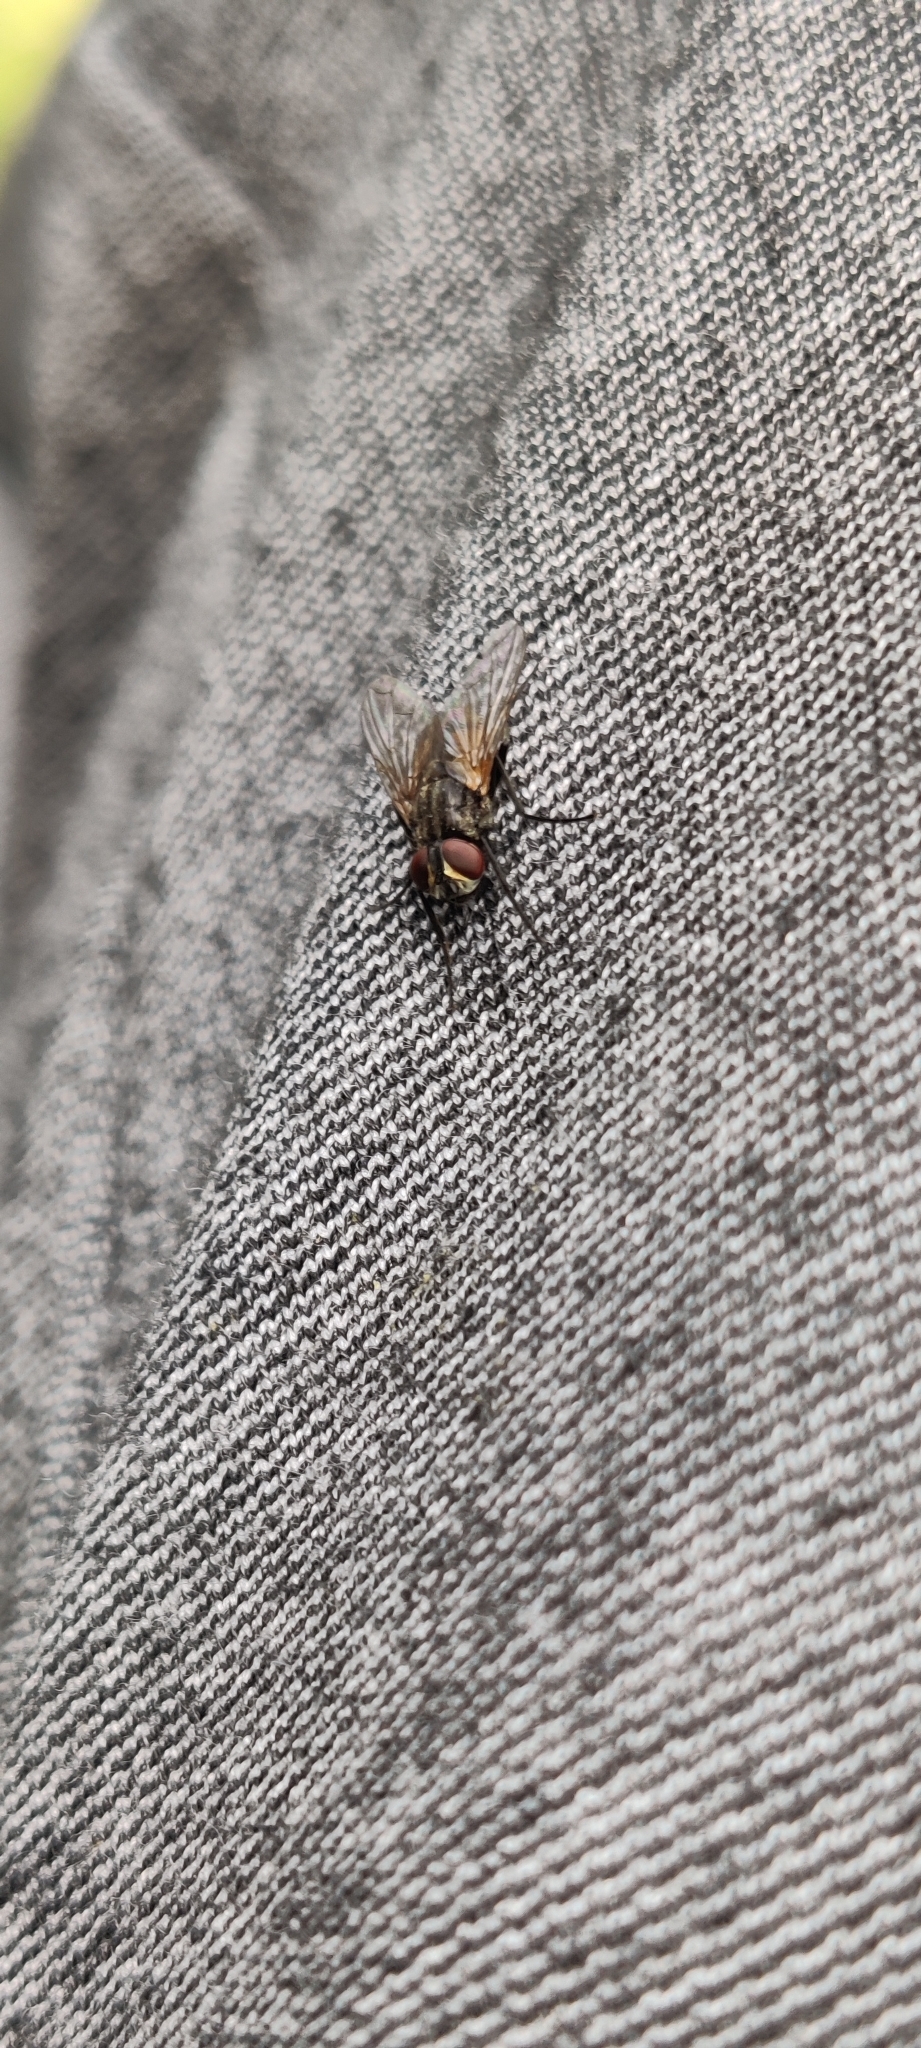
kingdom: Animalia
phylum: Arthropoda
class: Insecta
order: Diptera
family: Muscidae
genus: Musca
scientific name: Musca domestica
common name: House fly
